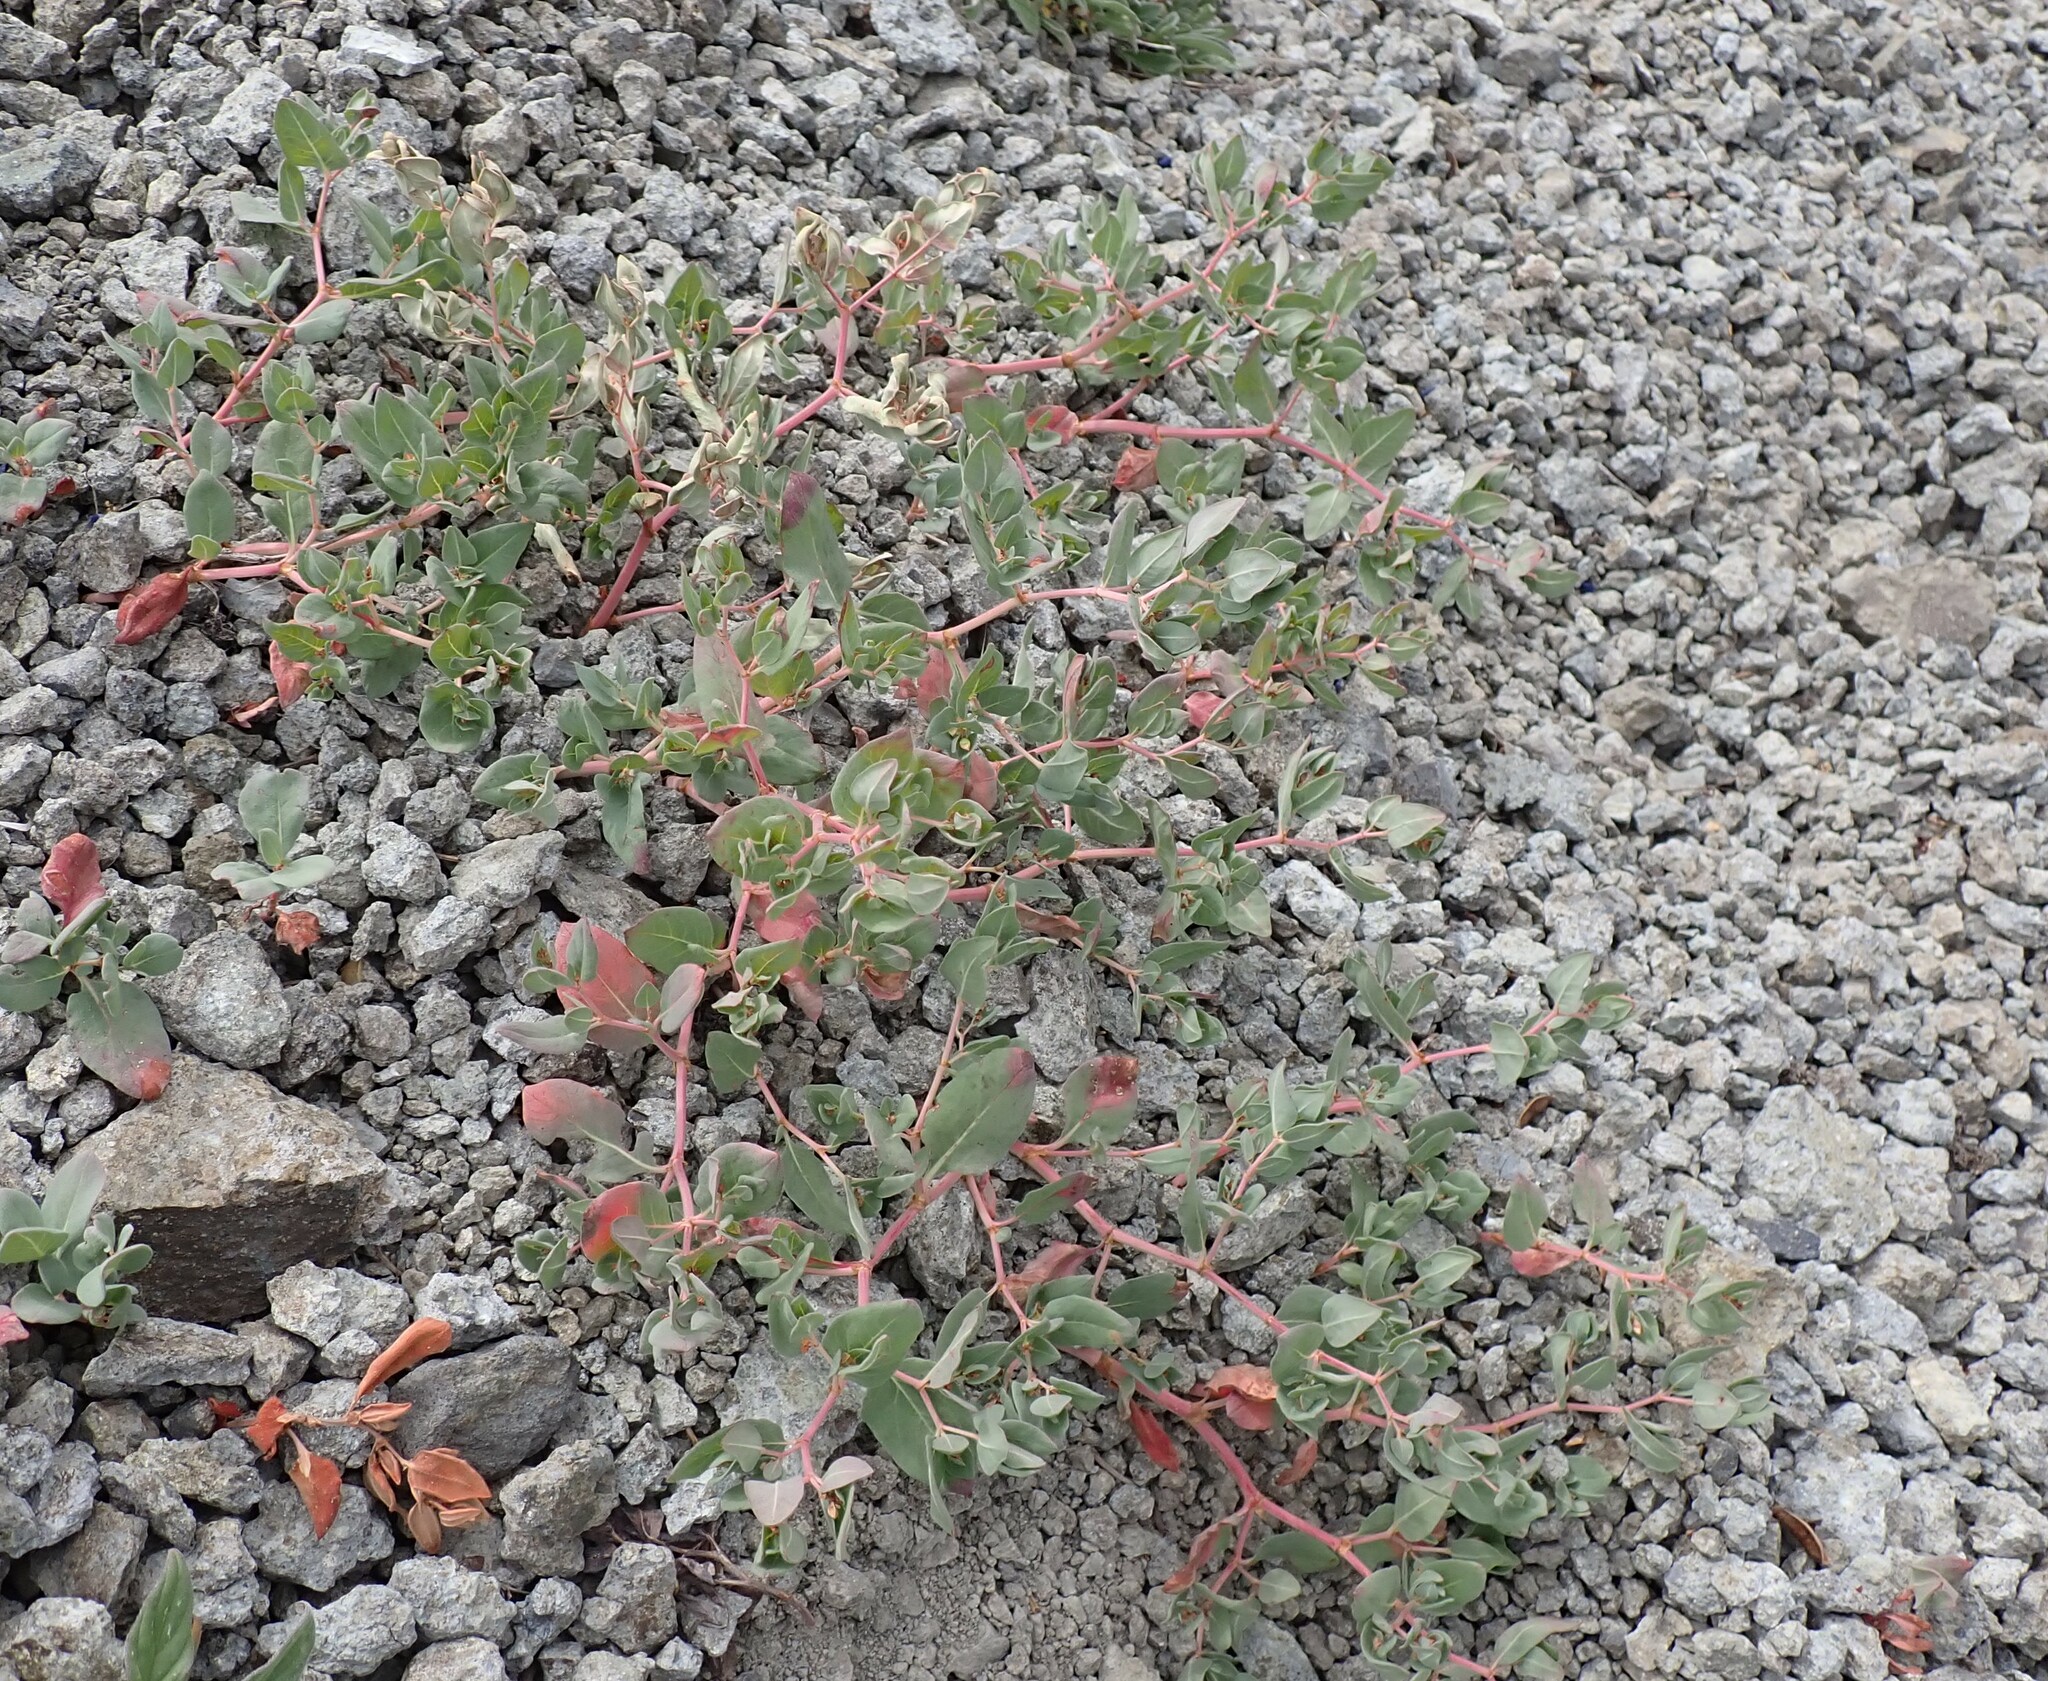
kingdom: Plantae
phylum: Tracheophyta
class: Magnoliopsida
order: Caryophyllales
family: Polygonaceae
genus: Koenigia
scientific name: Koenigia davisiae
